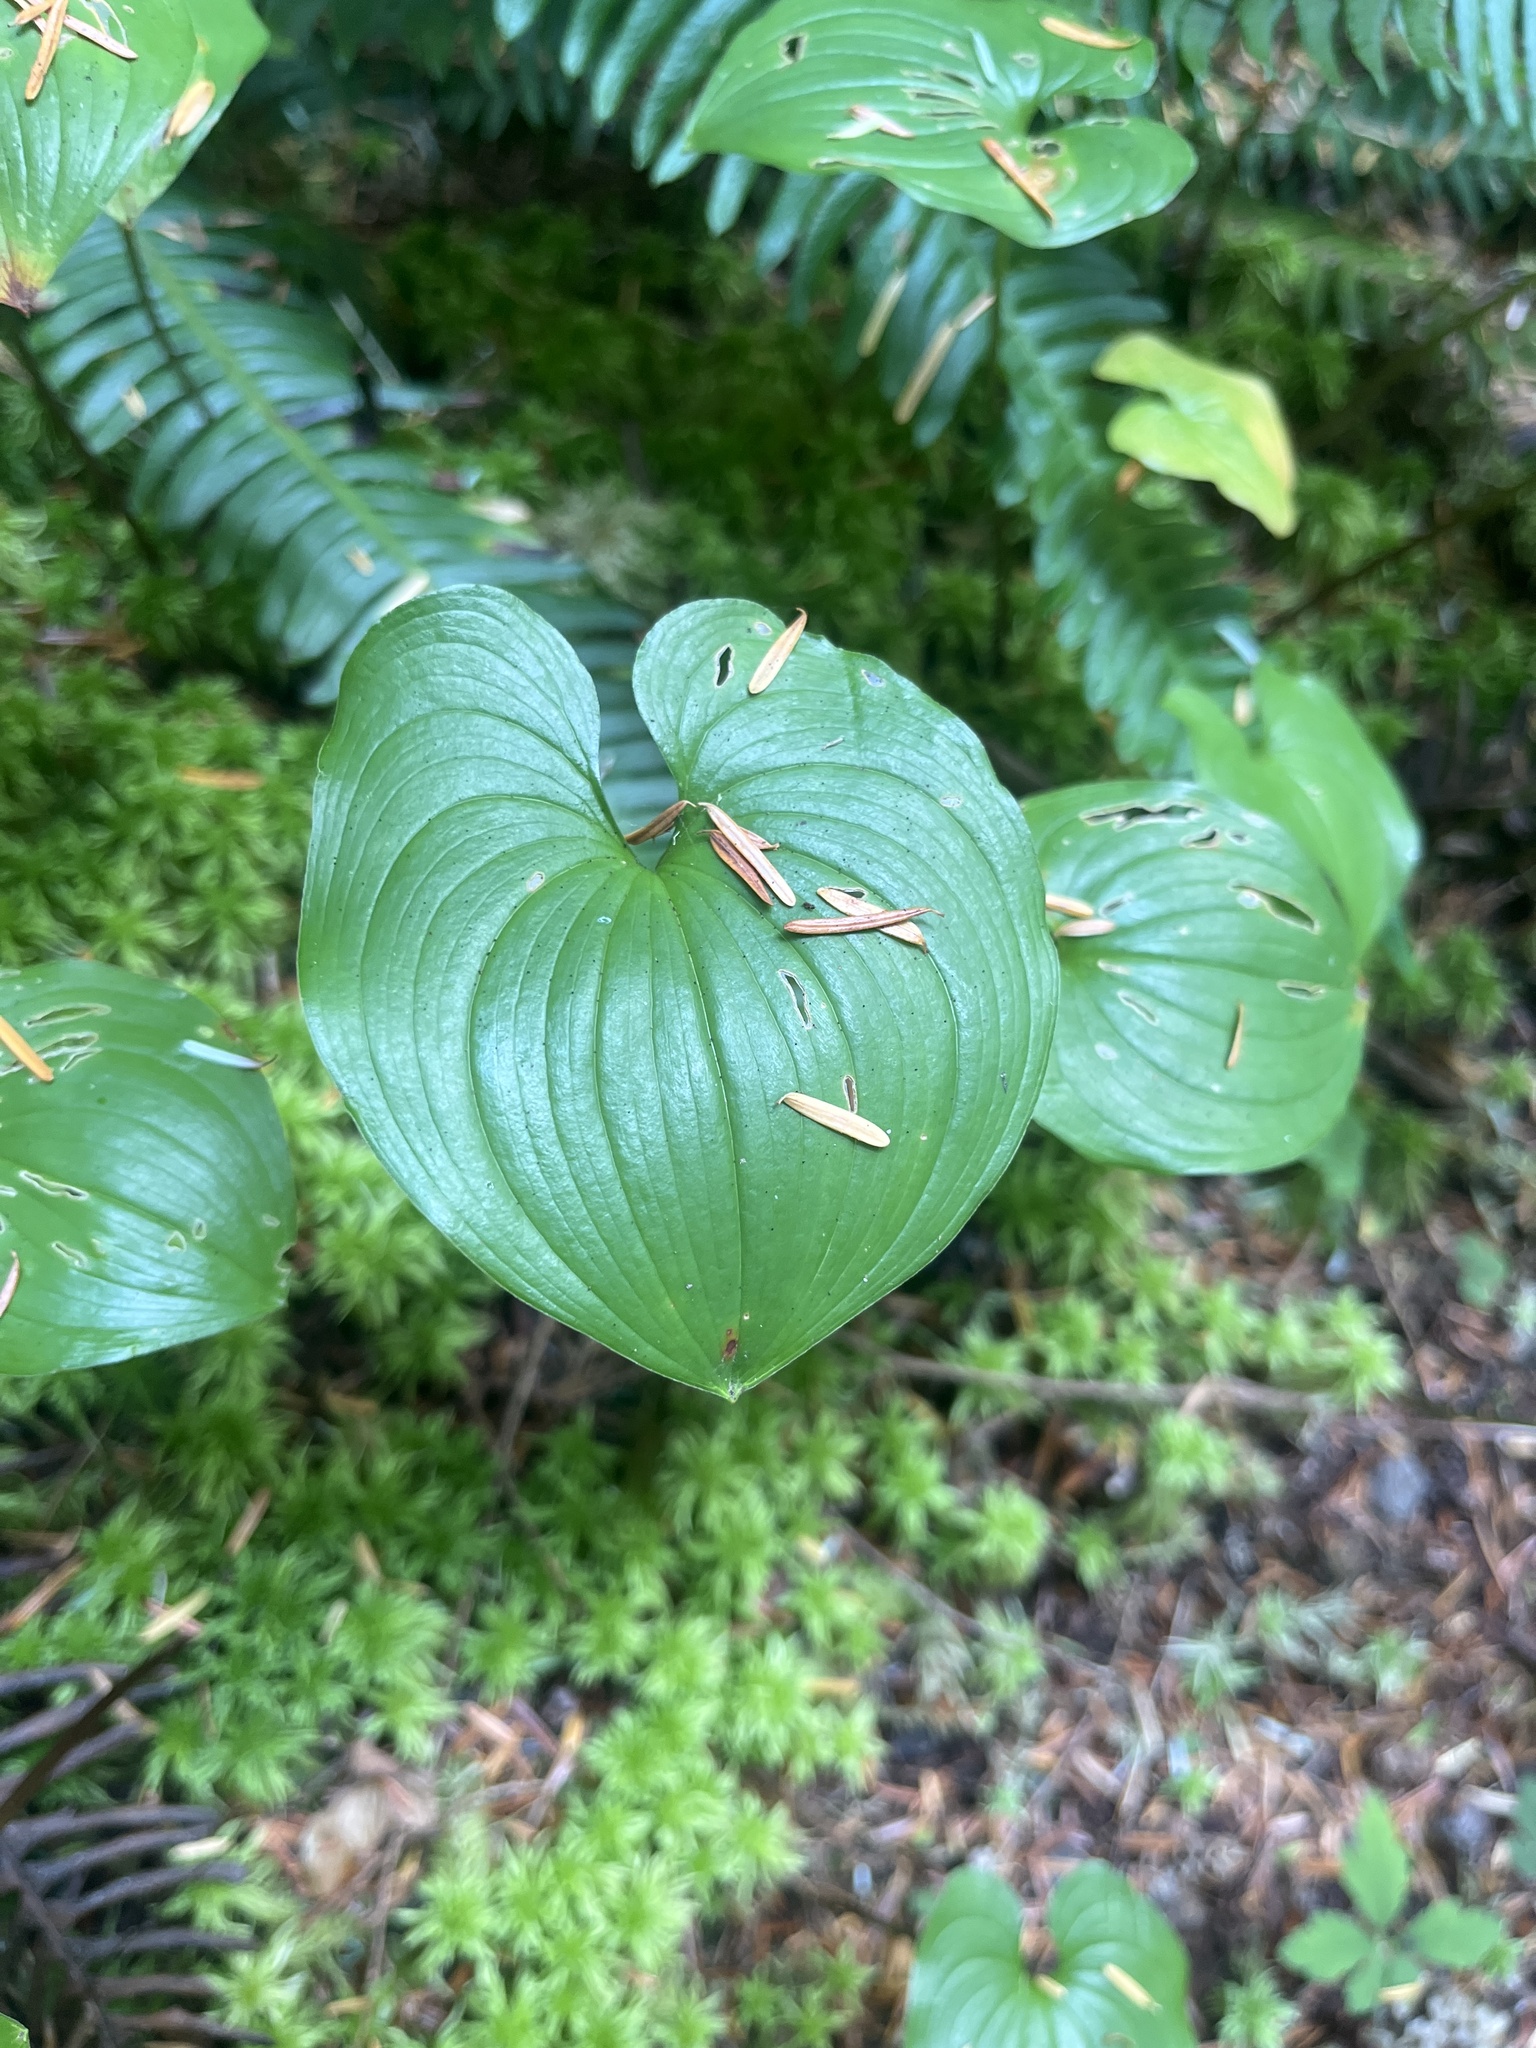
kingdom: Plantae
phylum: Tracheophyta
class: Liliopsida
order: Asparagales
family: Asparagaceae
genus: Maianthemum
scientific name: Maianthemum dilatatum
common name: False lily-of-the-valley
